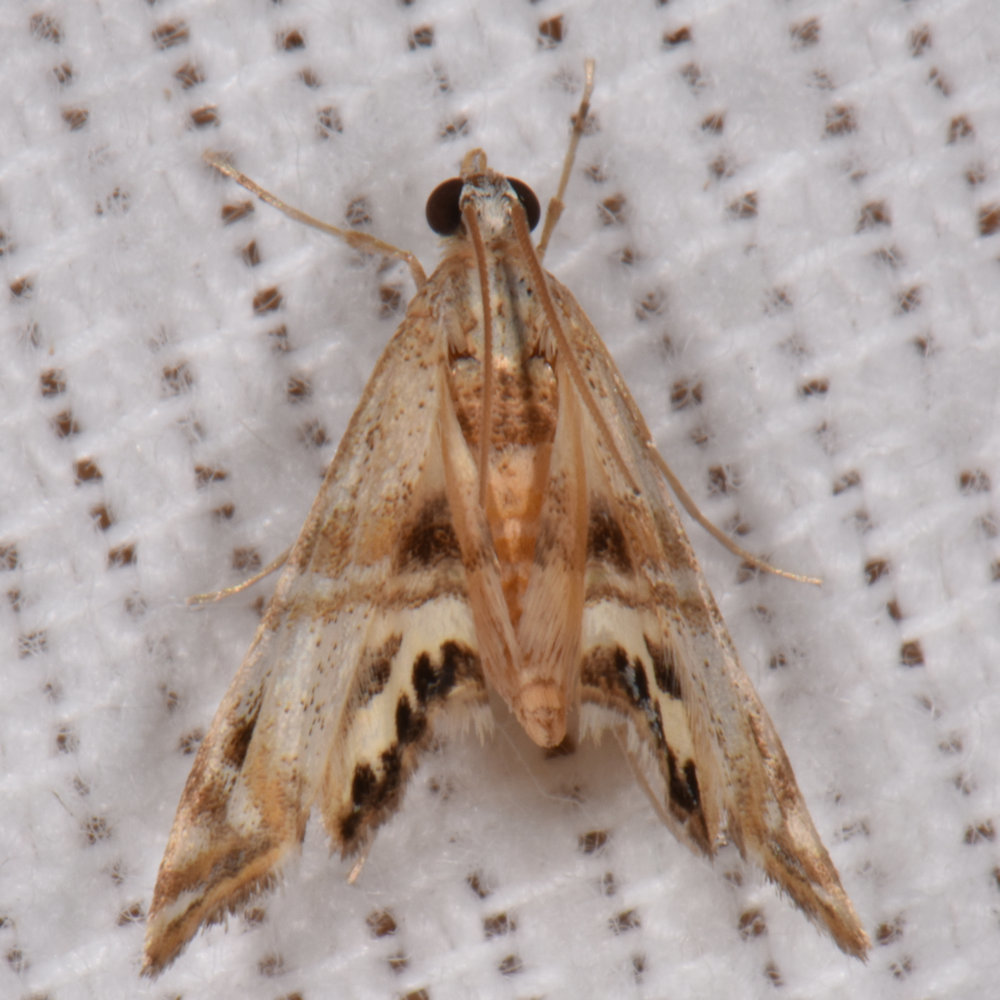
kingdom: Animalia
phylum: Arthropoda
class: Insecta
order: Lepidoptera
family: Crambidae
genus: Petrophila
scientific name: Petrophila bifascialis
